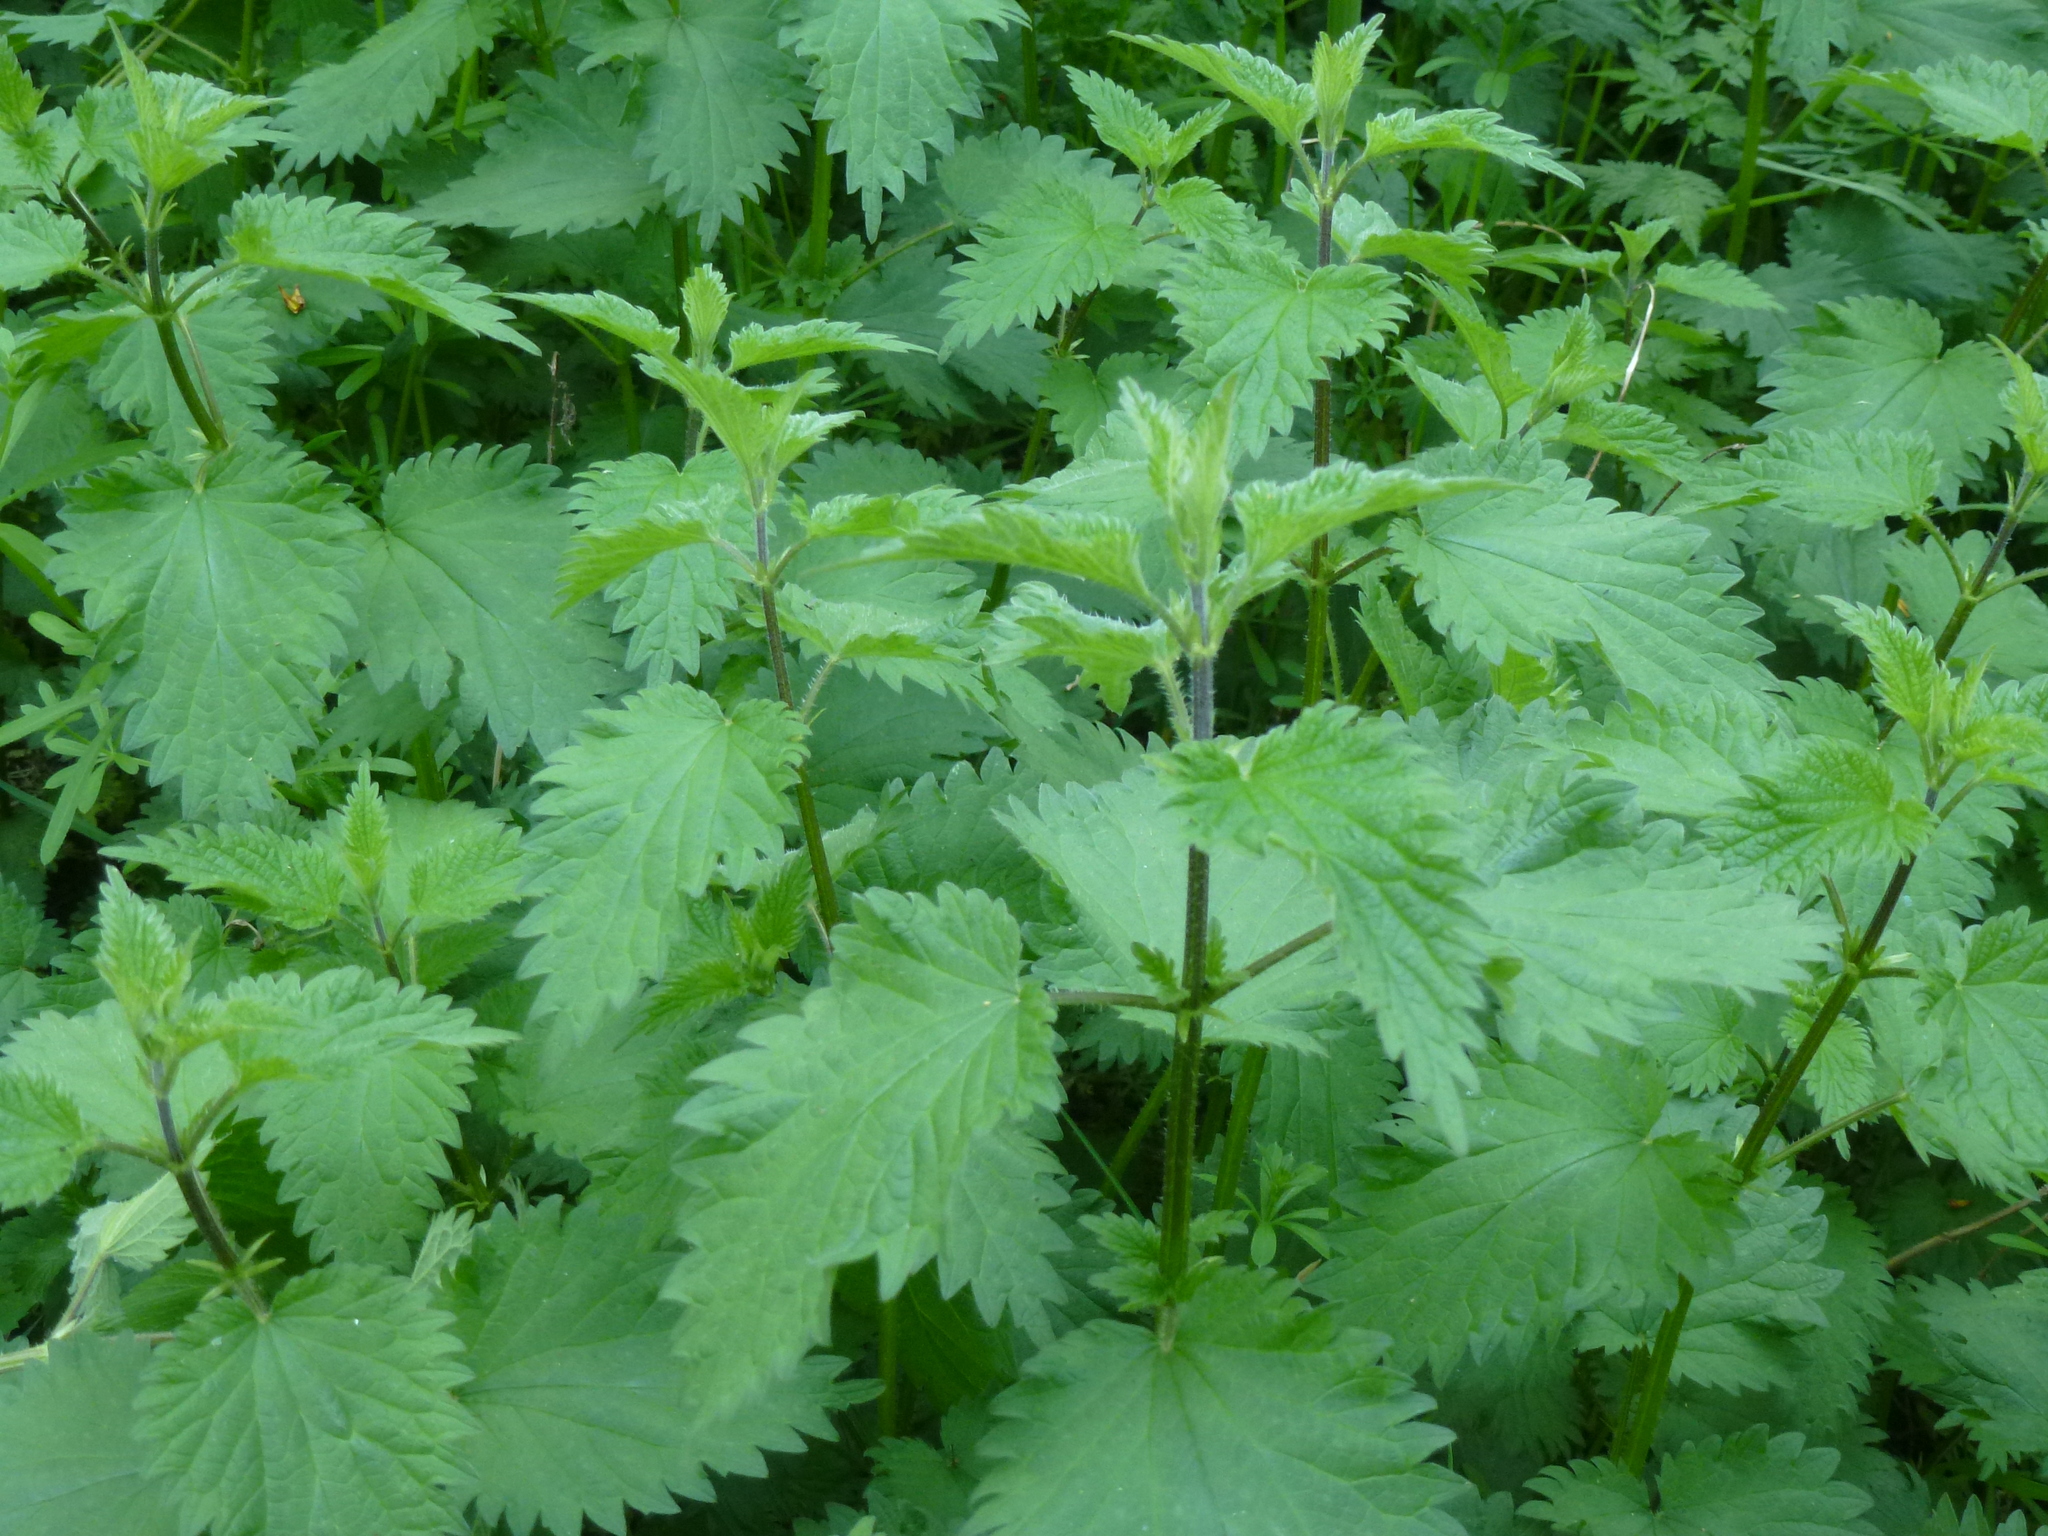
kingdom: Plantae
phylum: Tracheophyta
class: Magnoliopsida
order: Rosales
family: Urticaceae
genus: Urtica
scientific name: Urtica dioica
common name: Common nettle
